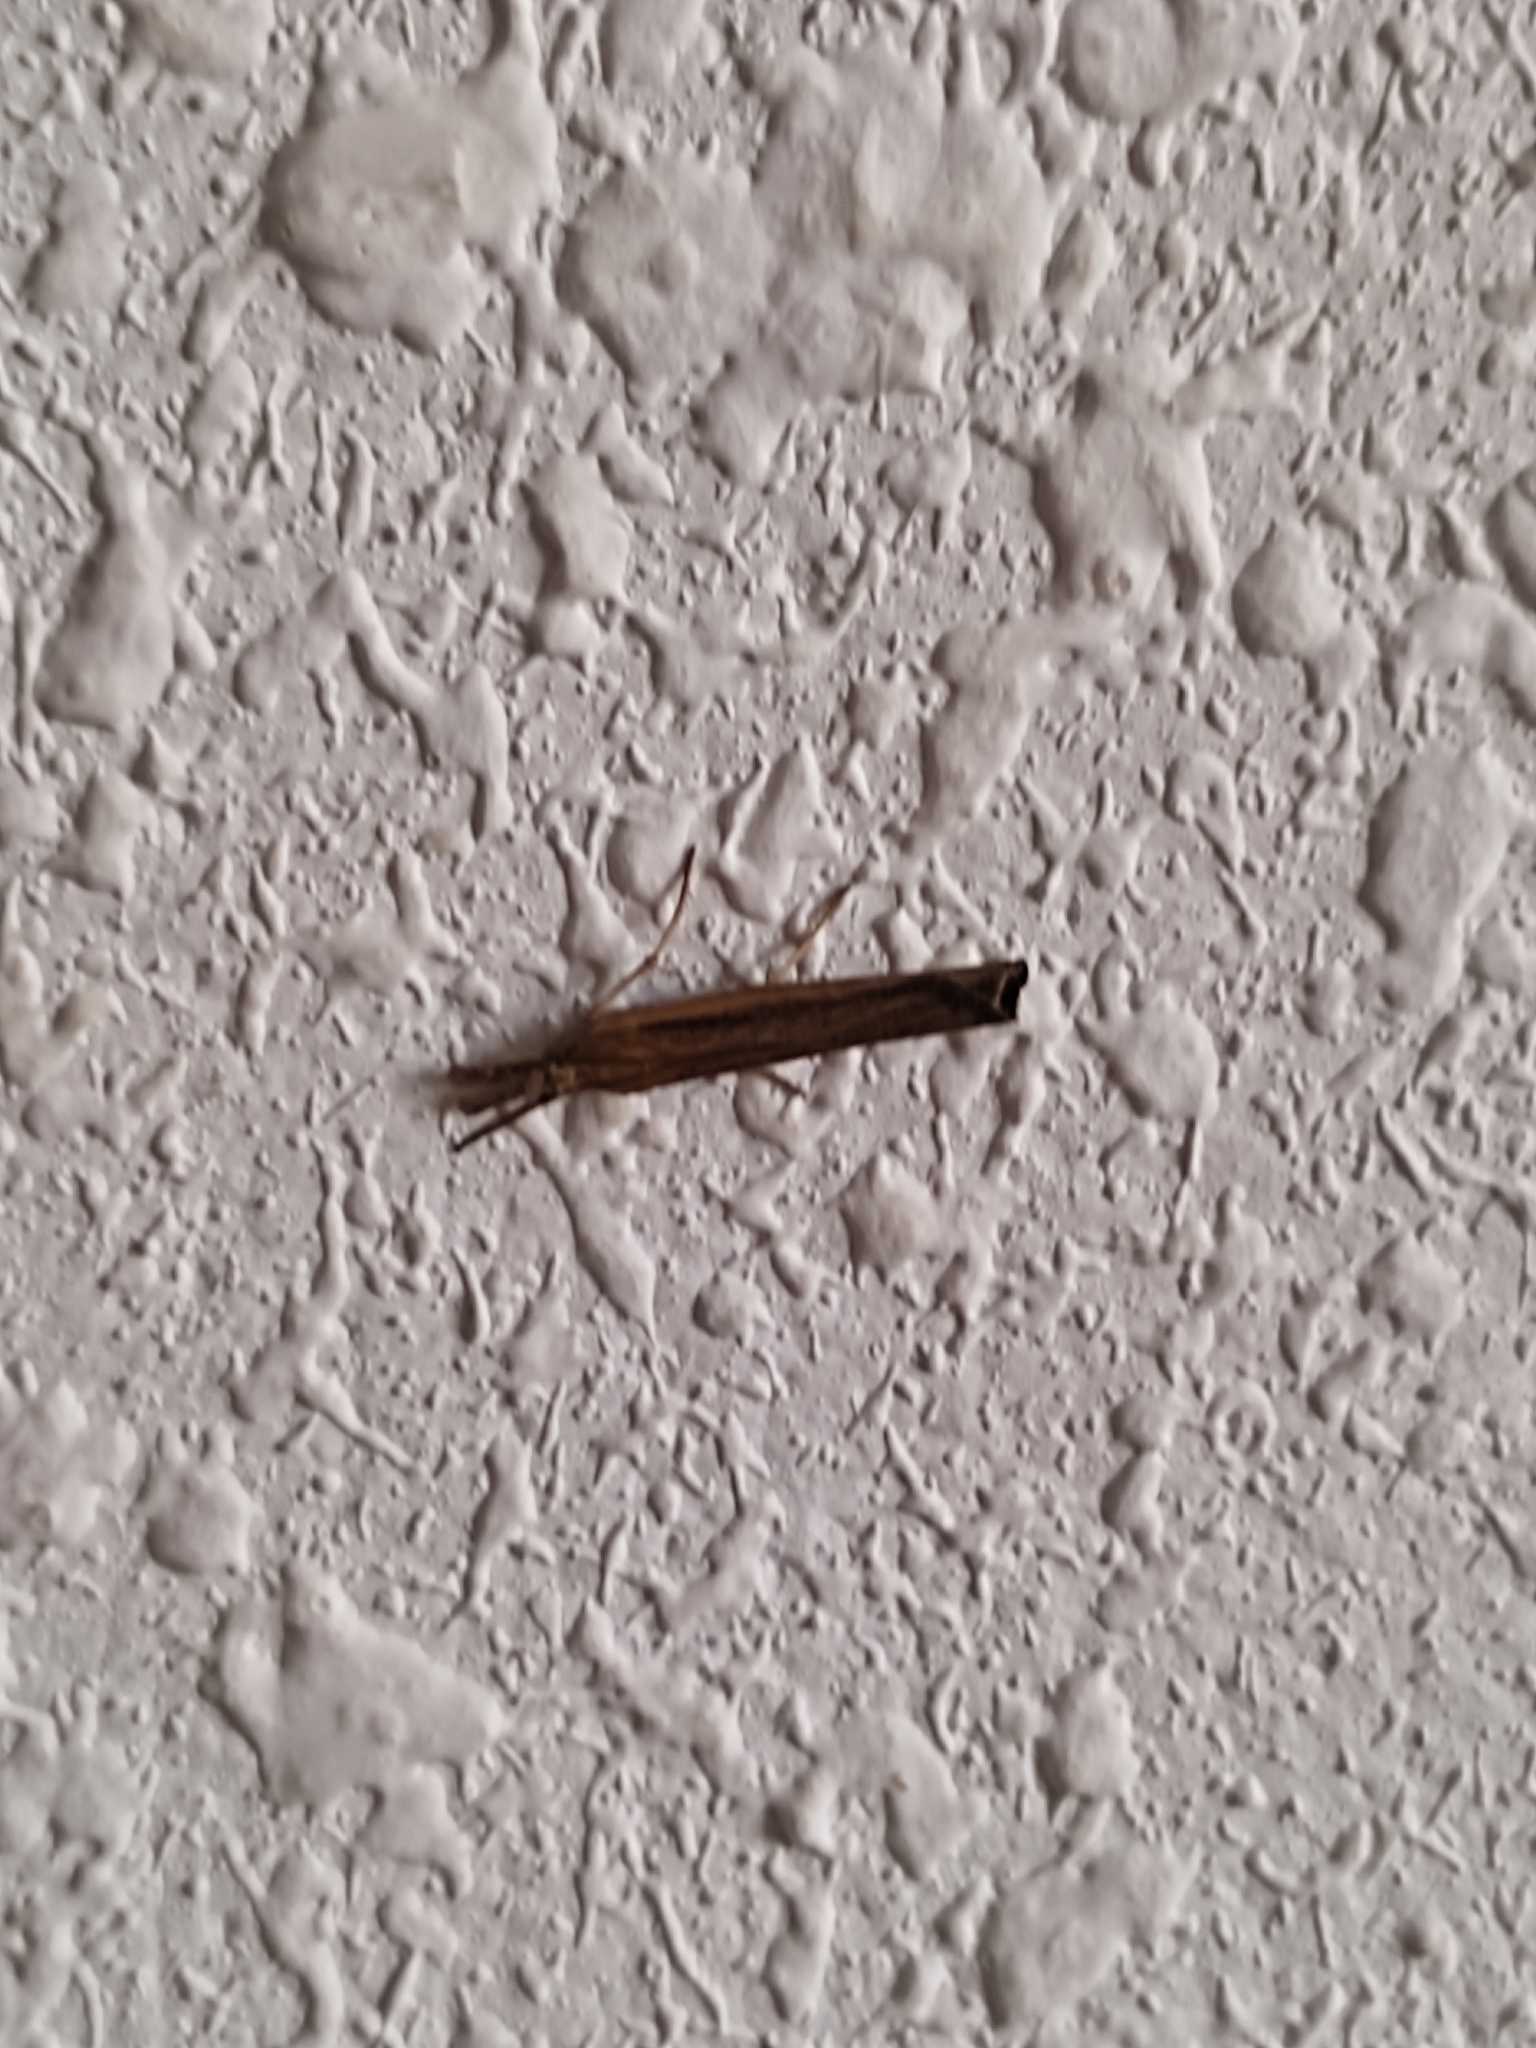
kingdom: Animalia
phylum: Arthropoda
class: Insecta
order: Lepidoptera
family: Crambidae
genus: Pediasia
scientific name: Pediasia contaminella
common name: Waste grass-veneer
